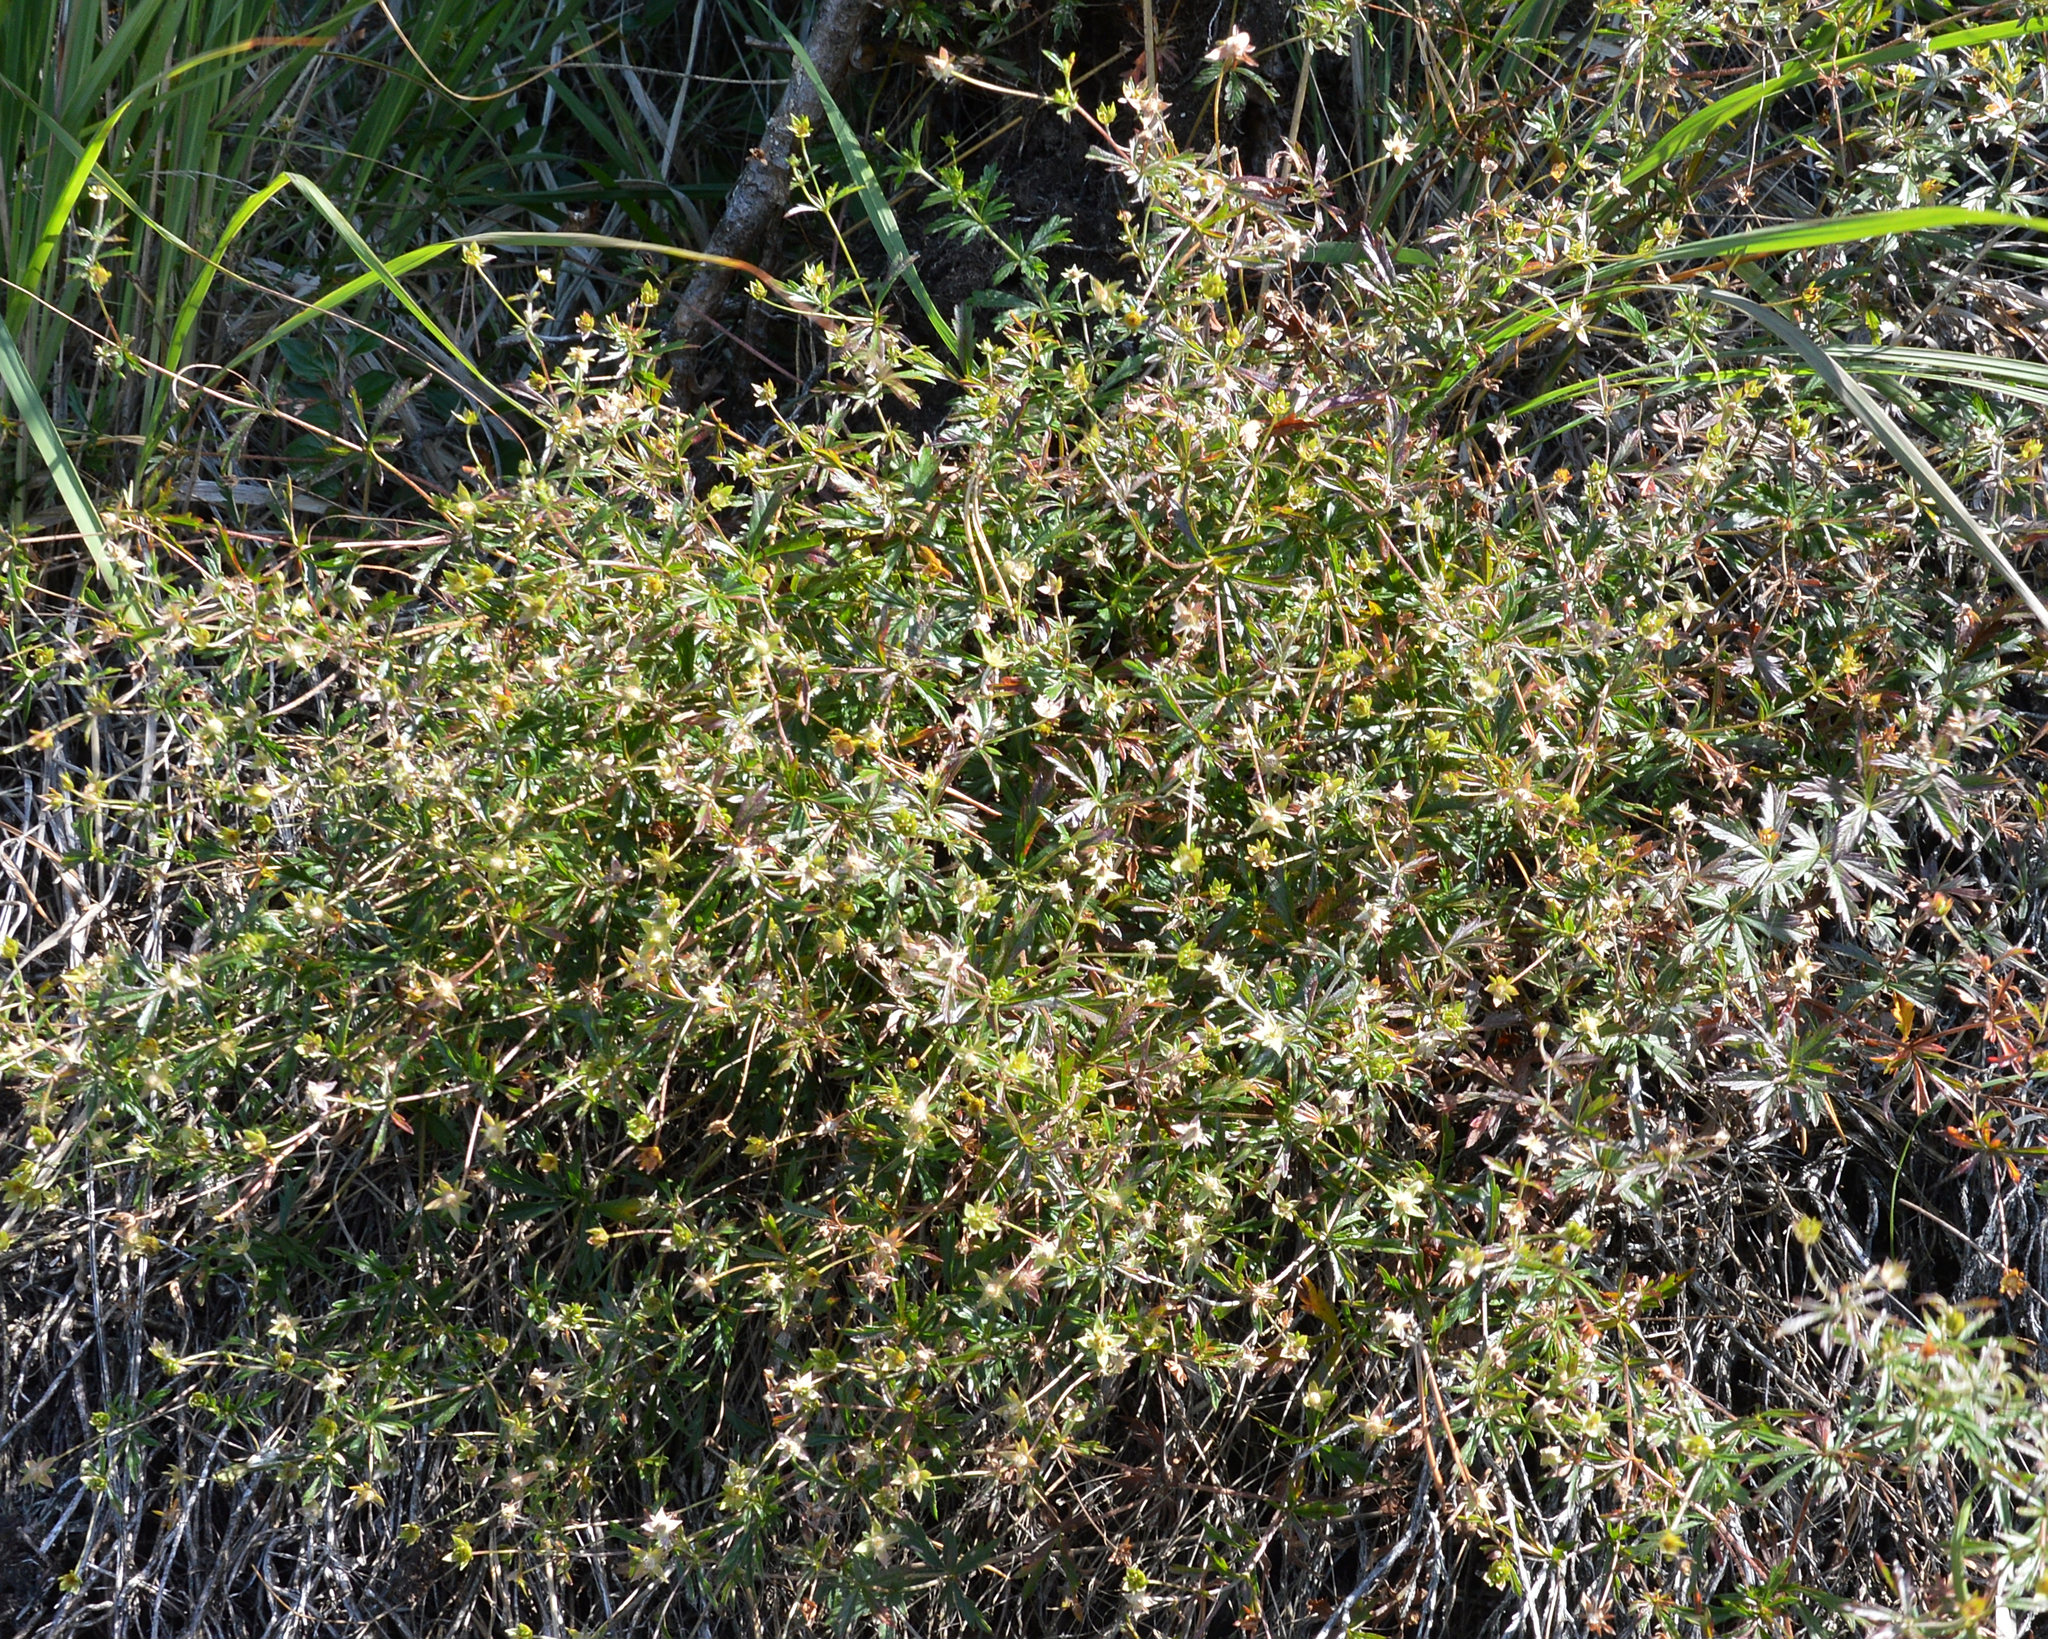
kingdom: Plantae
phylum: Tracheophyta
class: Magnoliopsida
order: Rosales
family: Rosaceae
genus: Potentilla
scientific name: Potentilla erecta
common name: Tormentil
